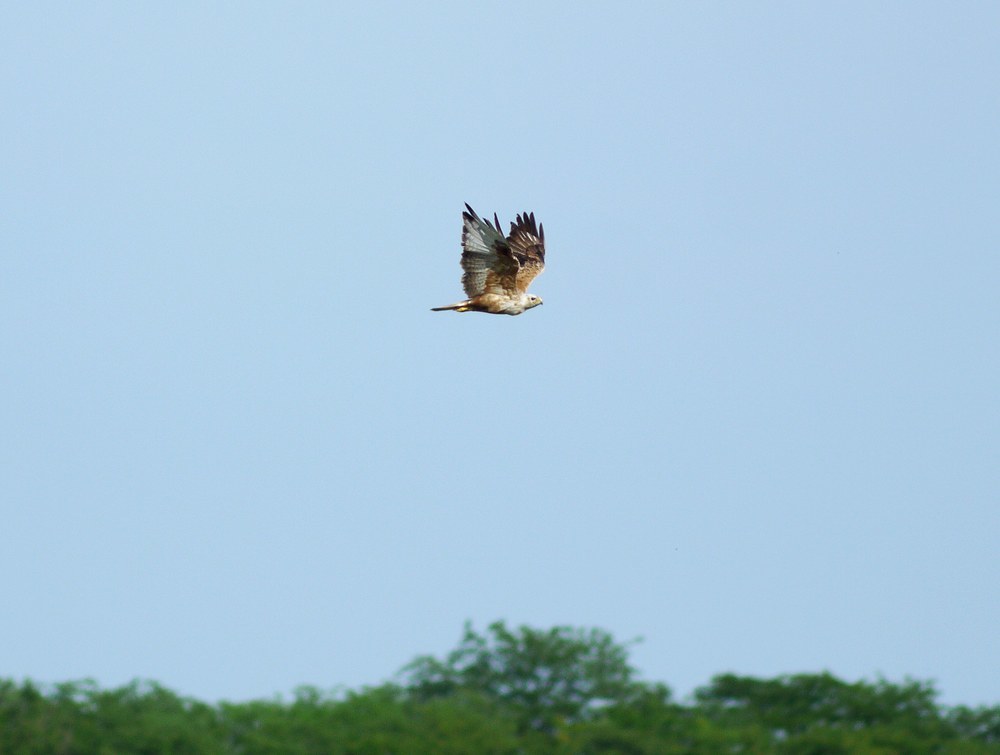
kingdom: Animalia
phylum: Chordata
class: Aves
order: Accipitriformes
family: Accipitridae
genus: Buteo
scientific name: Buteo rufinus
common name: Long-legged buzzard
